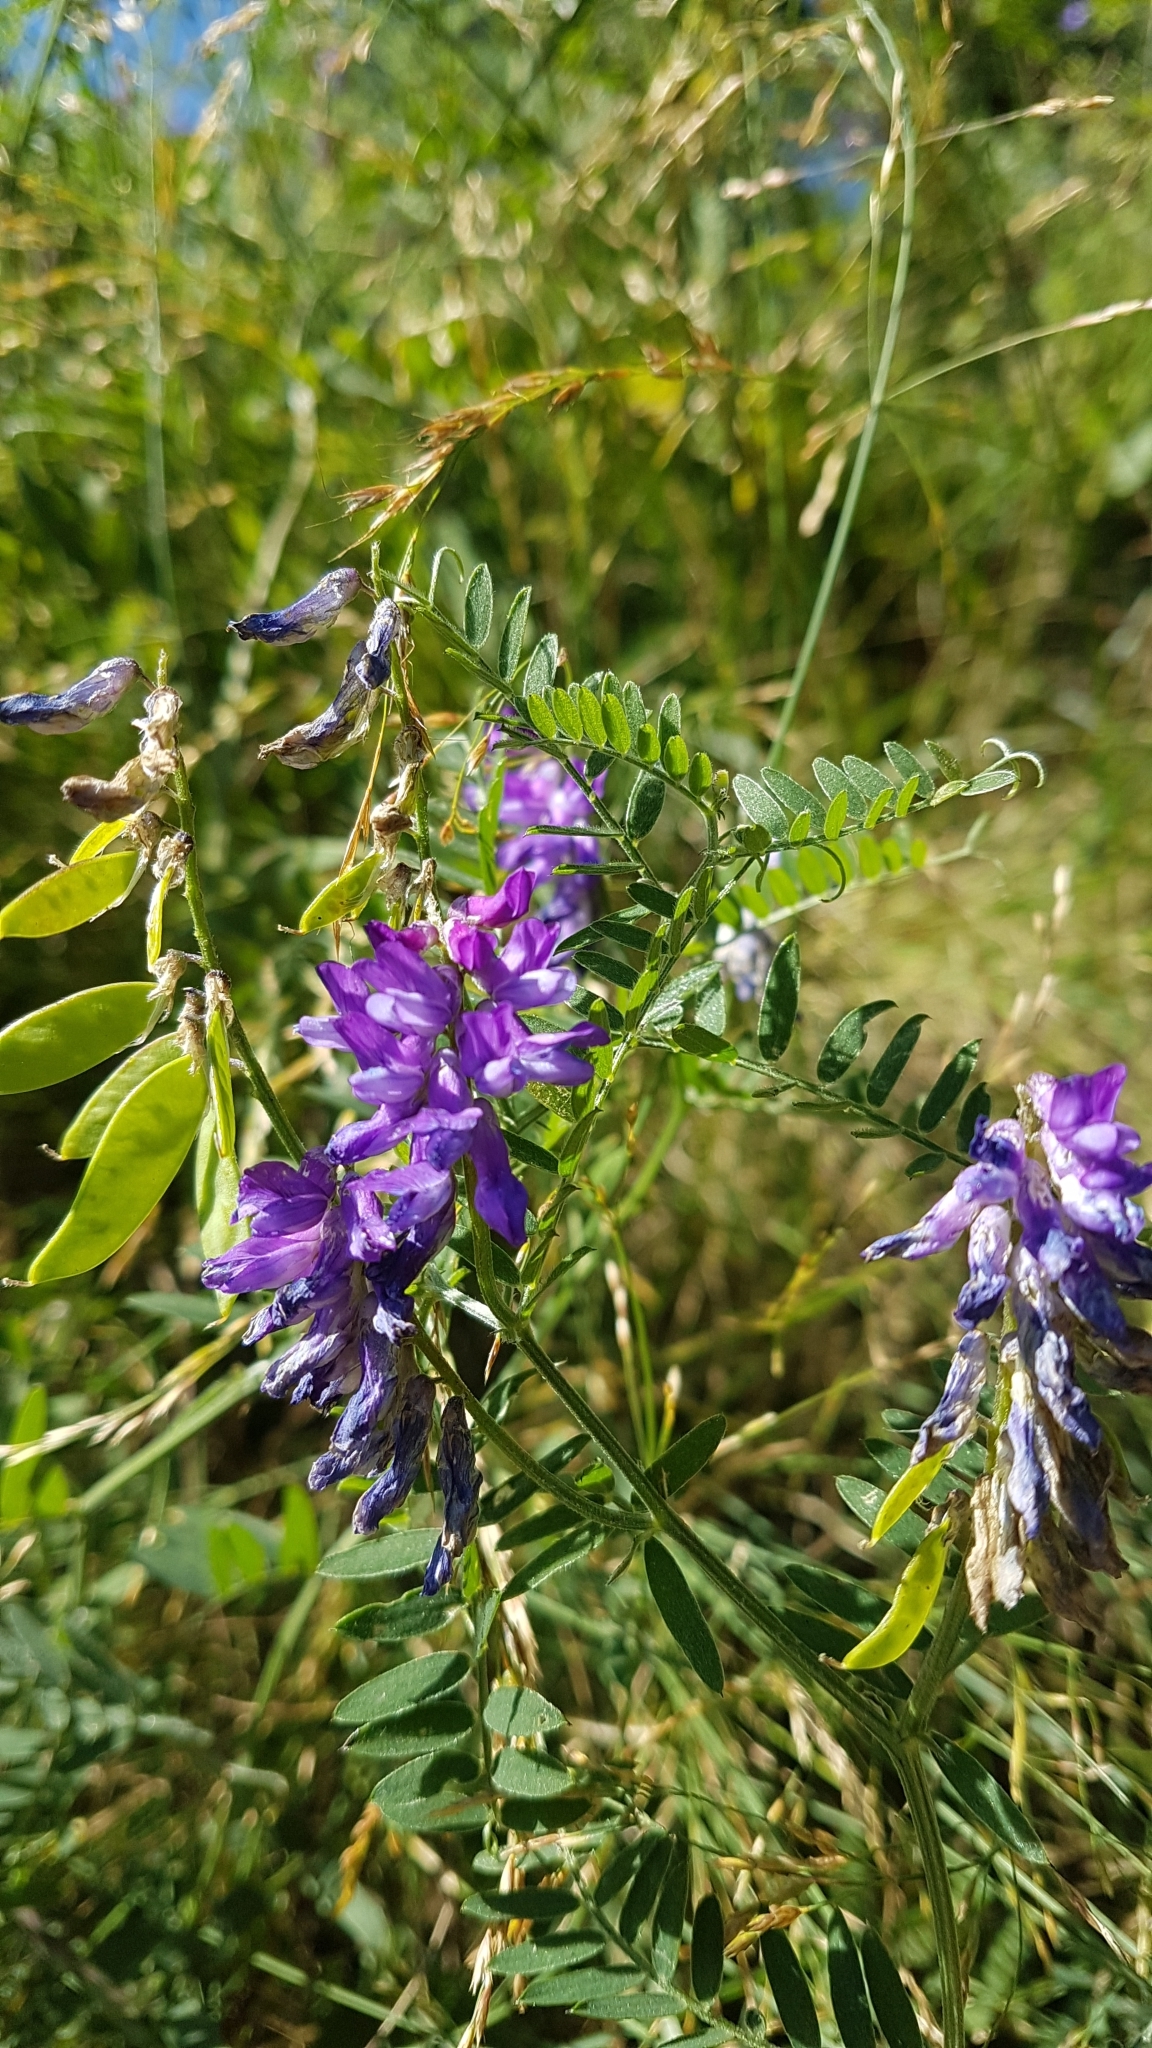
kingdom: Plantae
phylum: Tracheophyta
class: Magnoliopsida
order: Fabales
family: Fabaceae
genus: Vicia
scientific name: Vicia cracca
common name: Bird vetch
